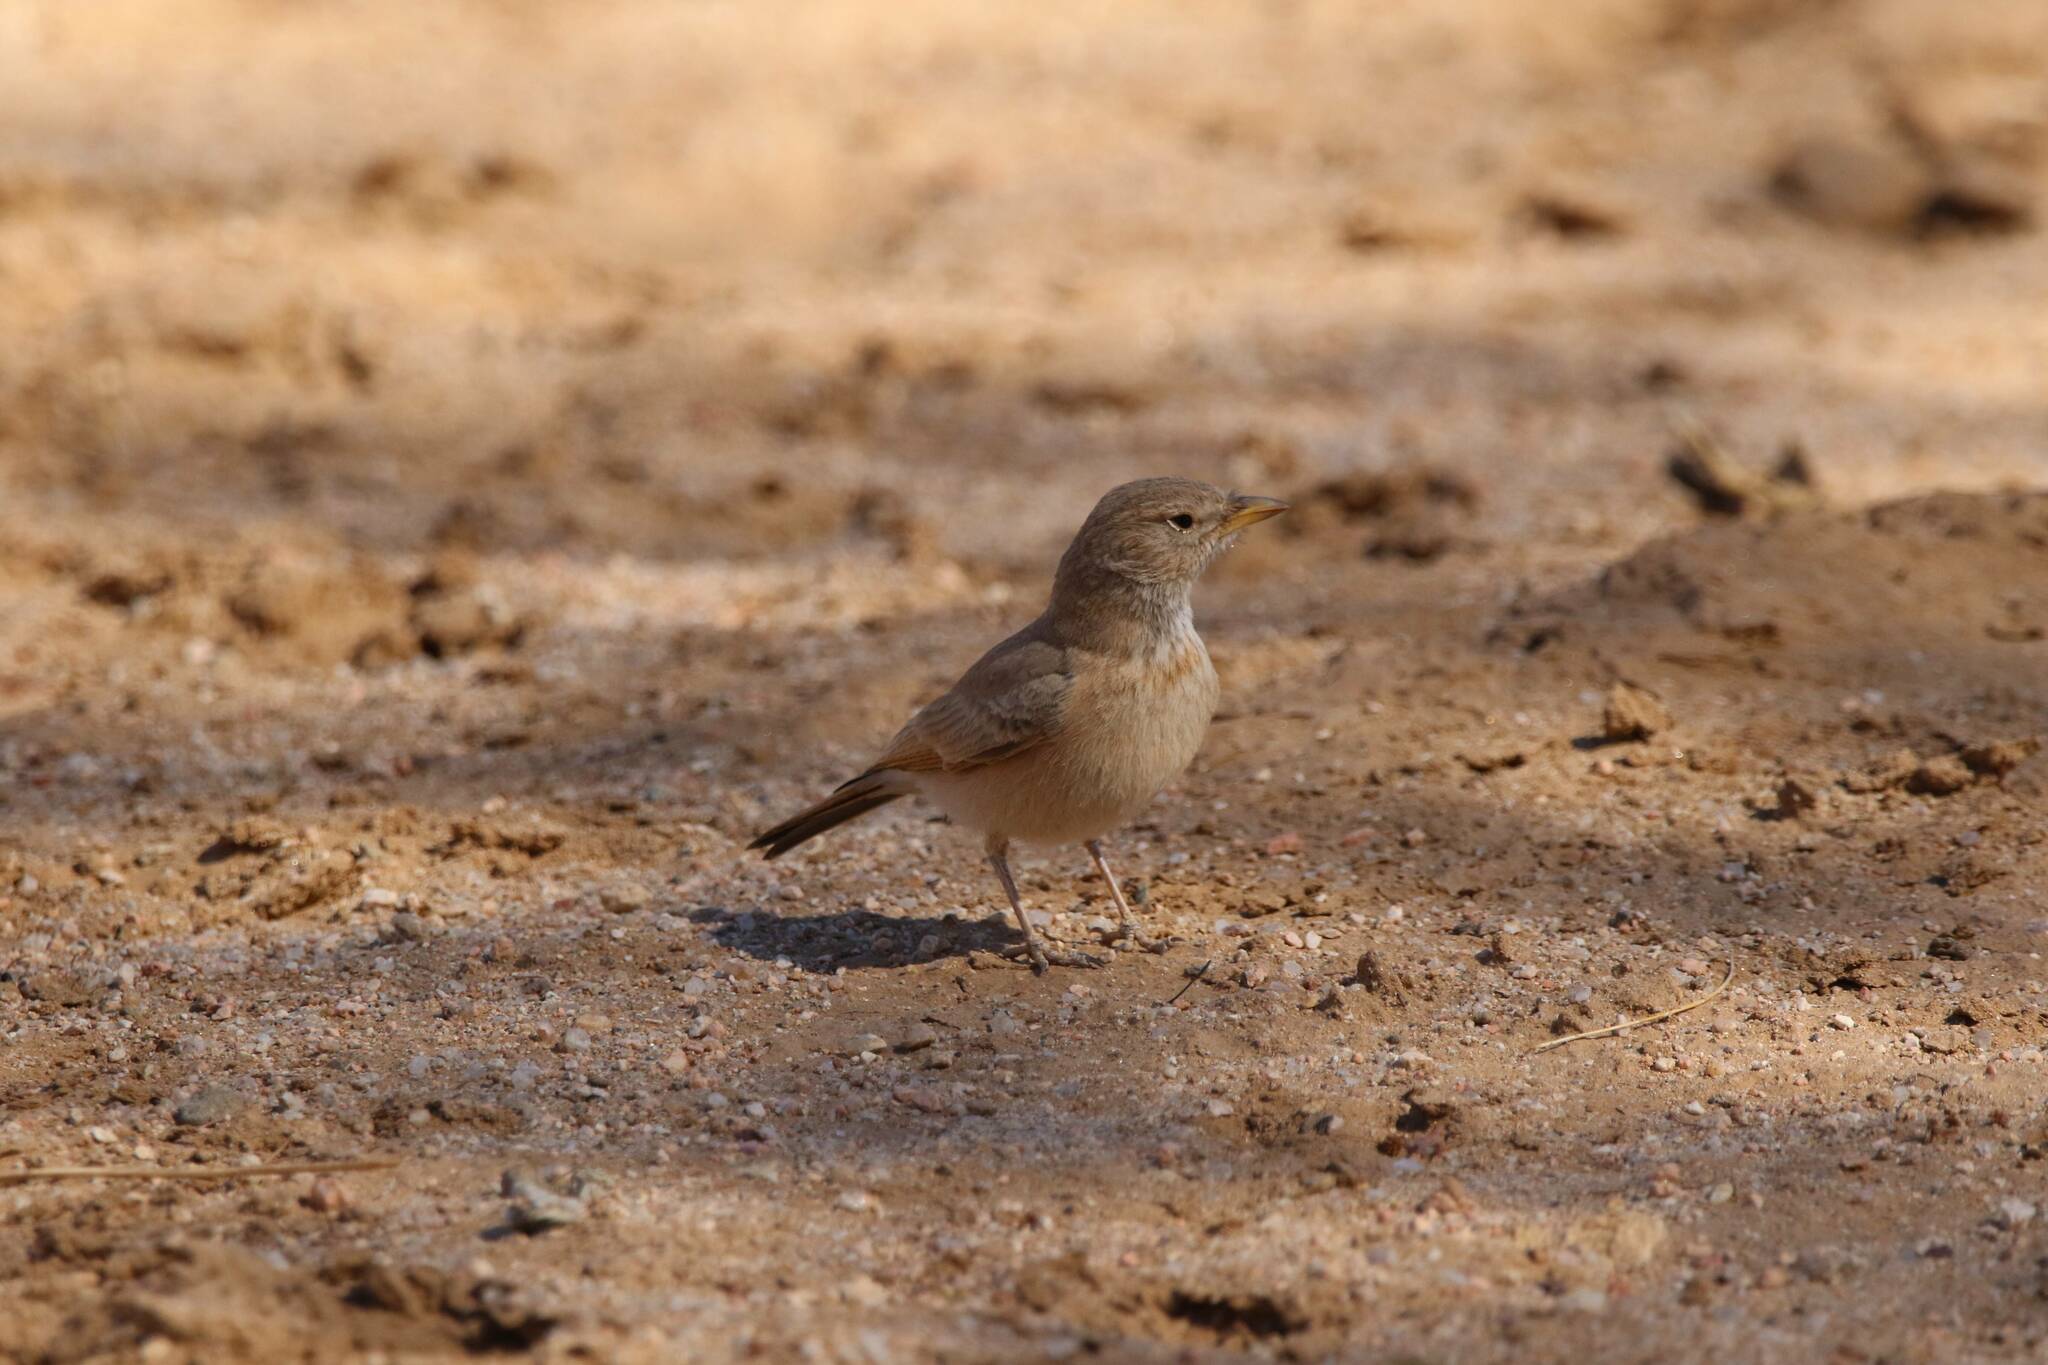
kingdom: Animalia
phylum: Chordata
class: Aves
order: Passeriformes
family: Alaudidae
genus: Ammomanes
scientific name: Ammomanes deserti
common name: Desert lark
